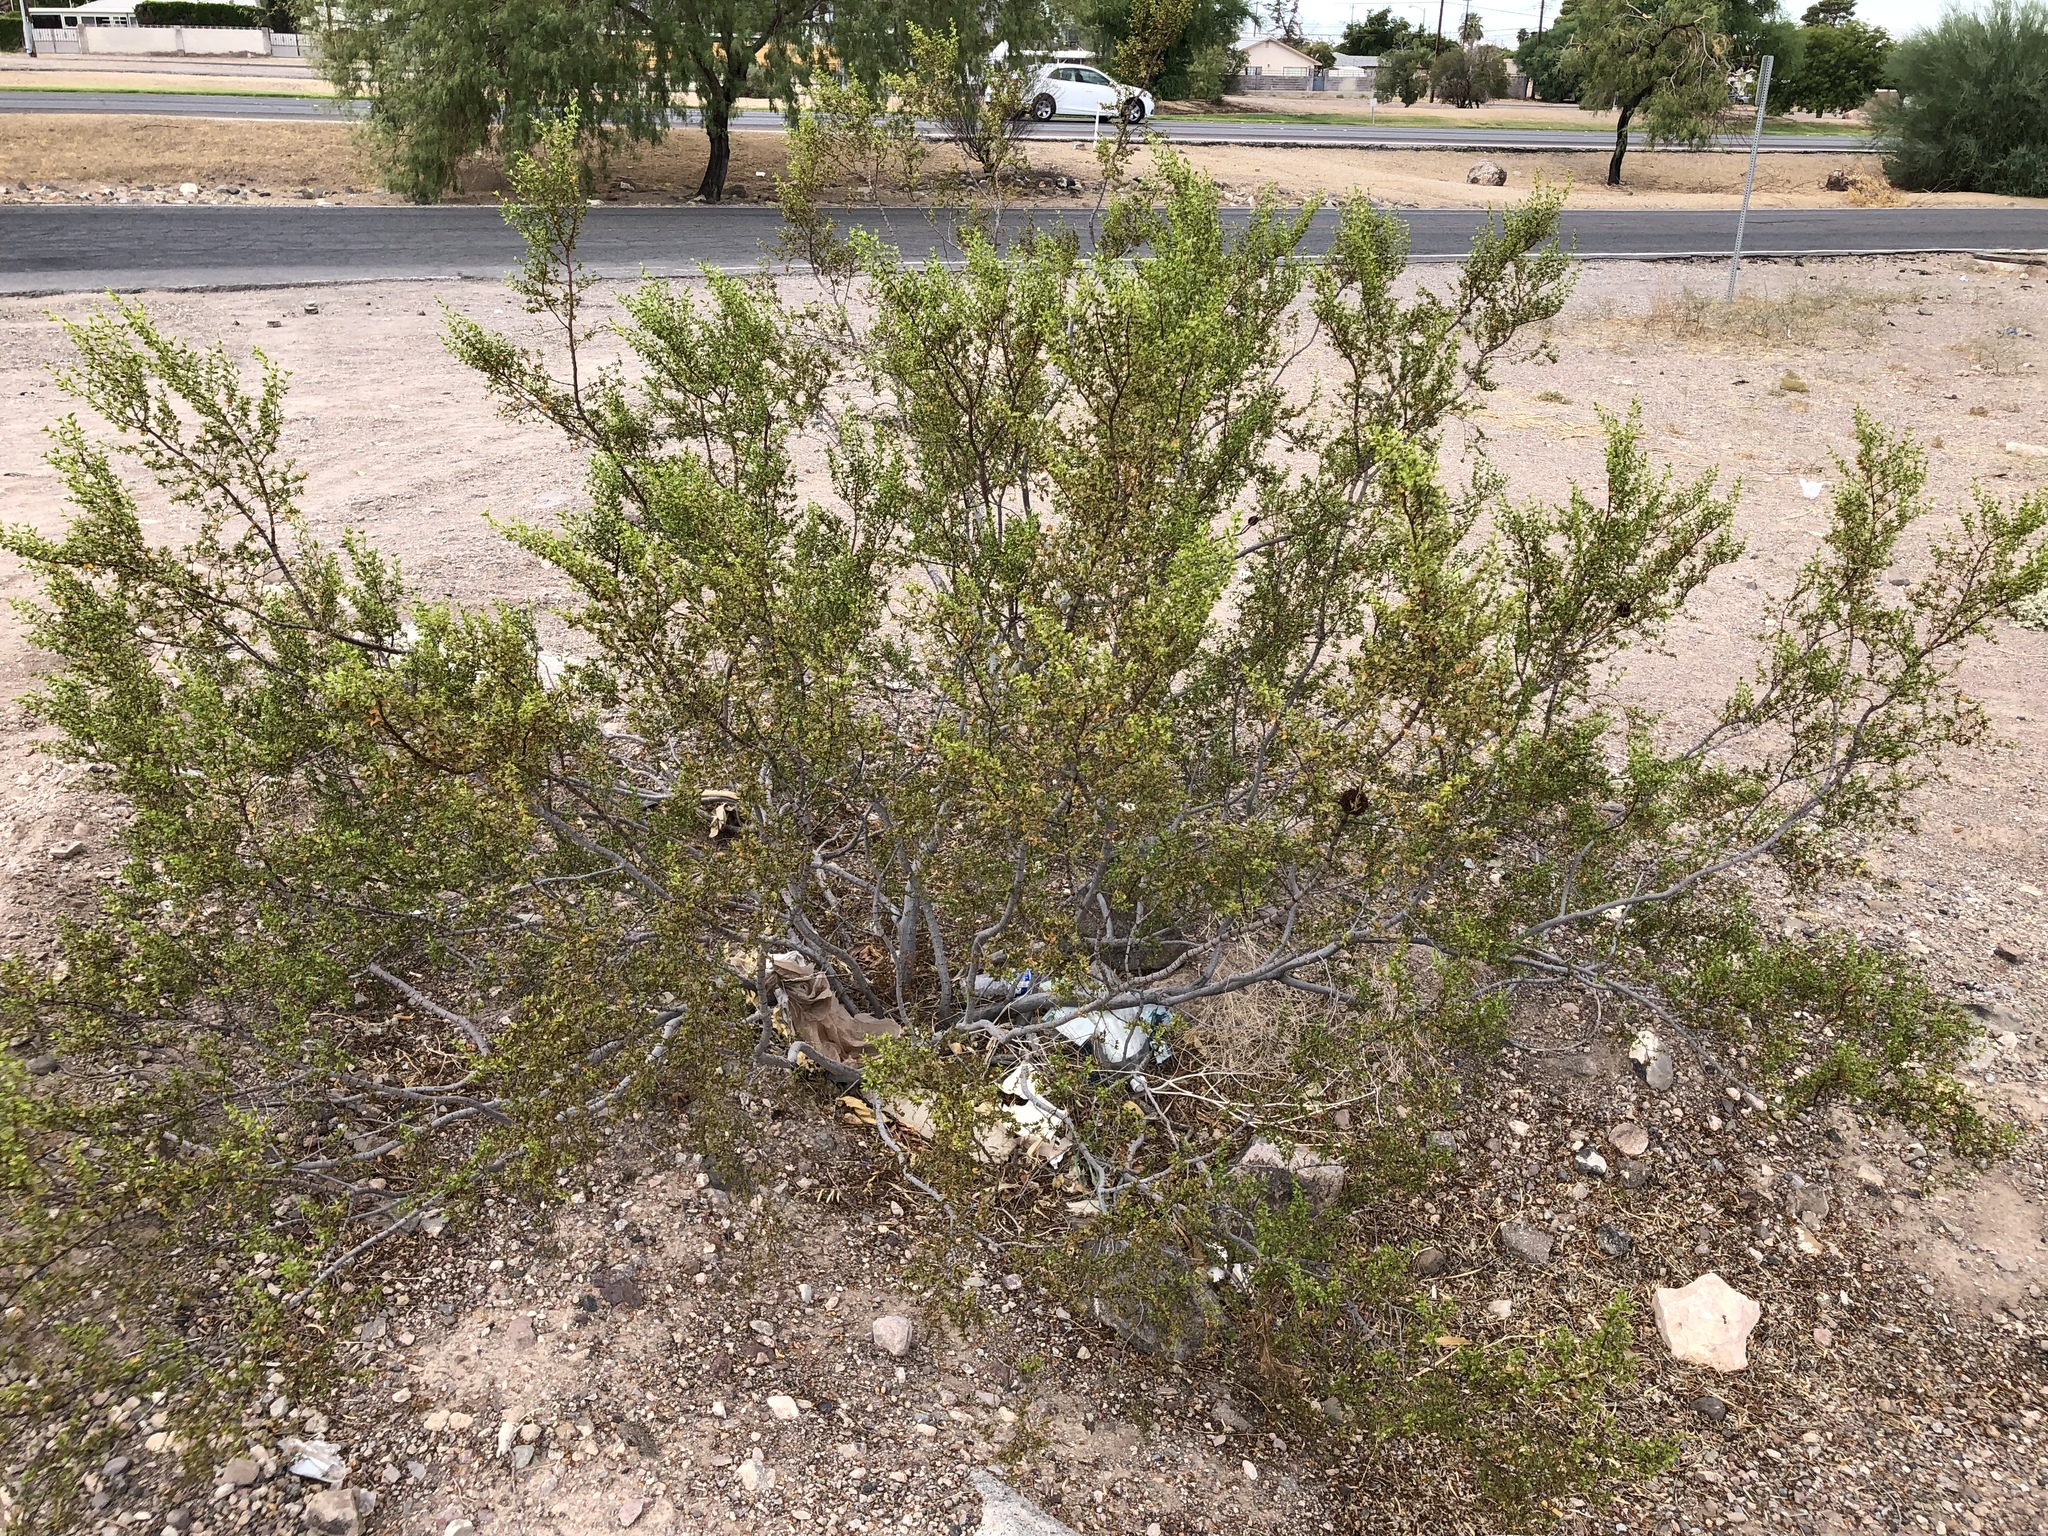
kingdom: Plantae
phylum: Tracheophyta
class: Magnoliopsida
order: Zygophyllales
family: Zygophyllaceae
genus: Larrea
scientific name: Larrea tridentata
